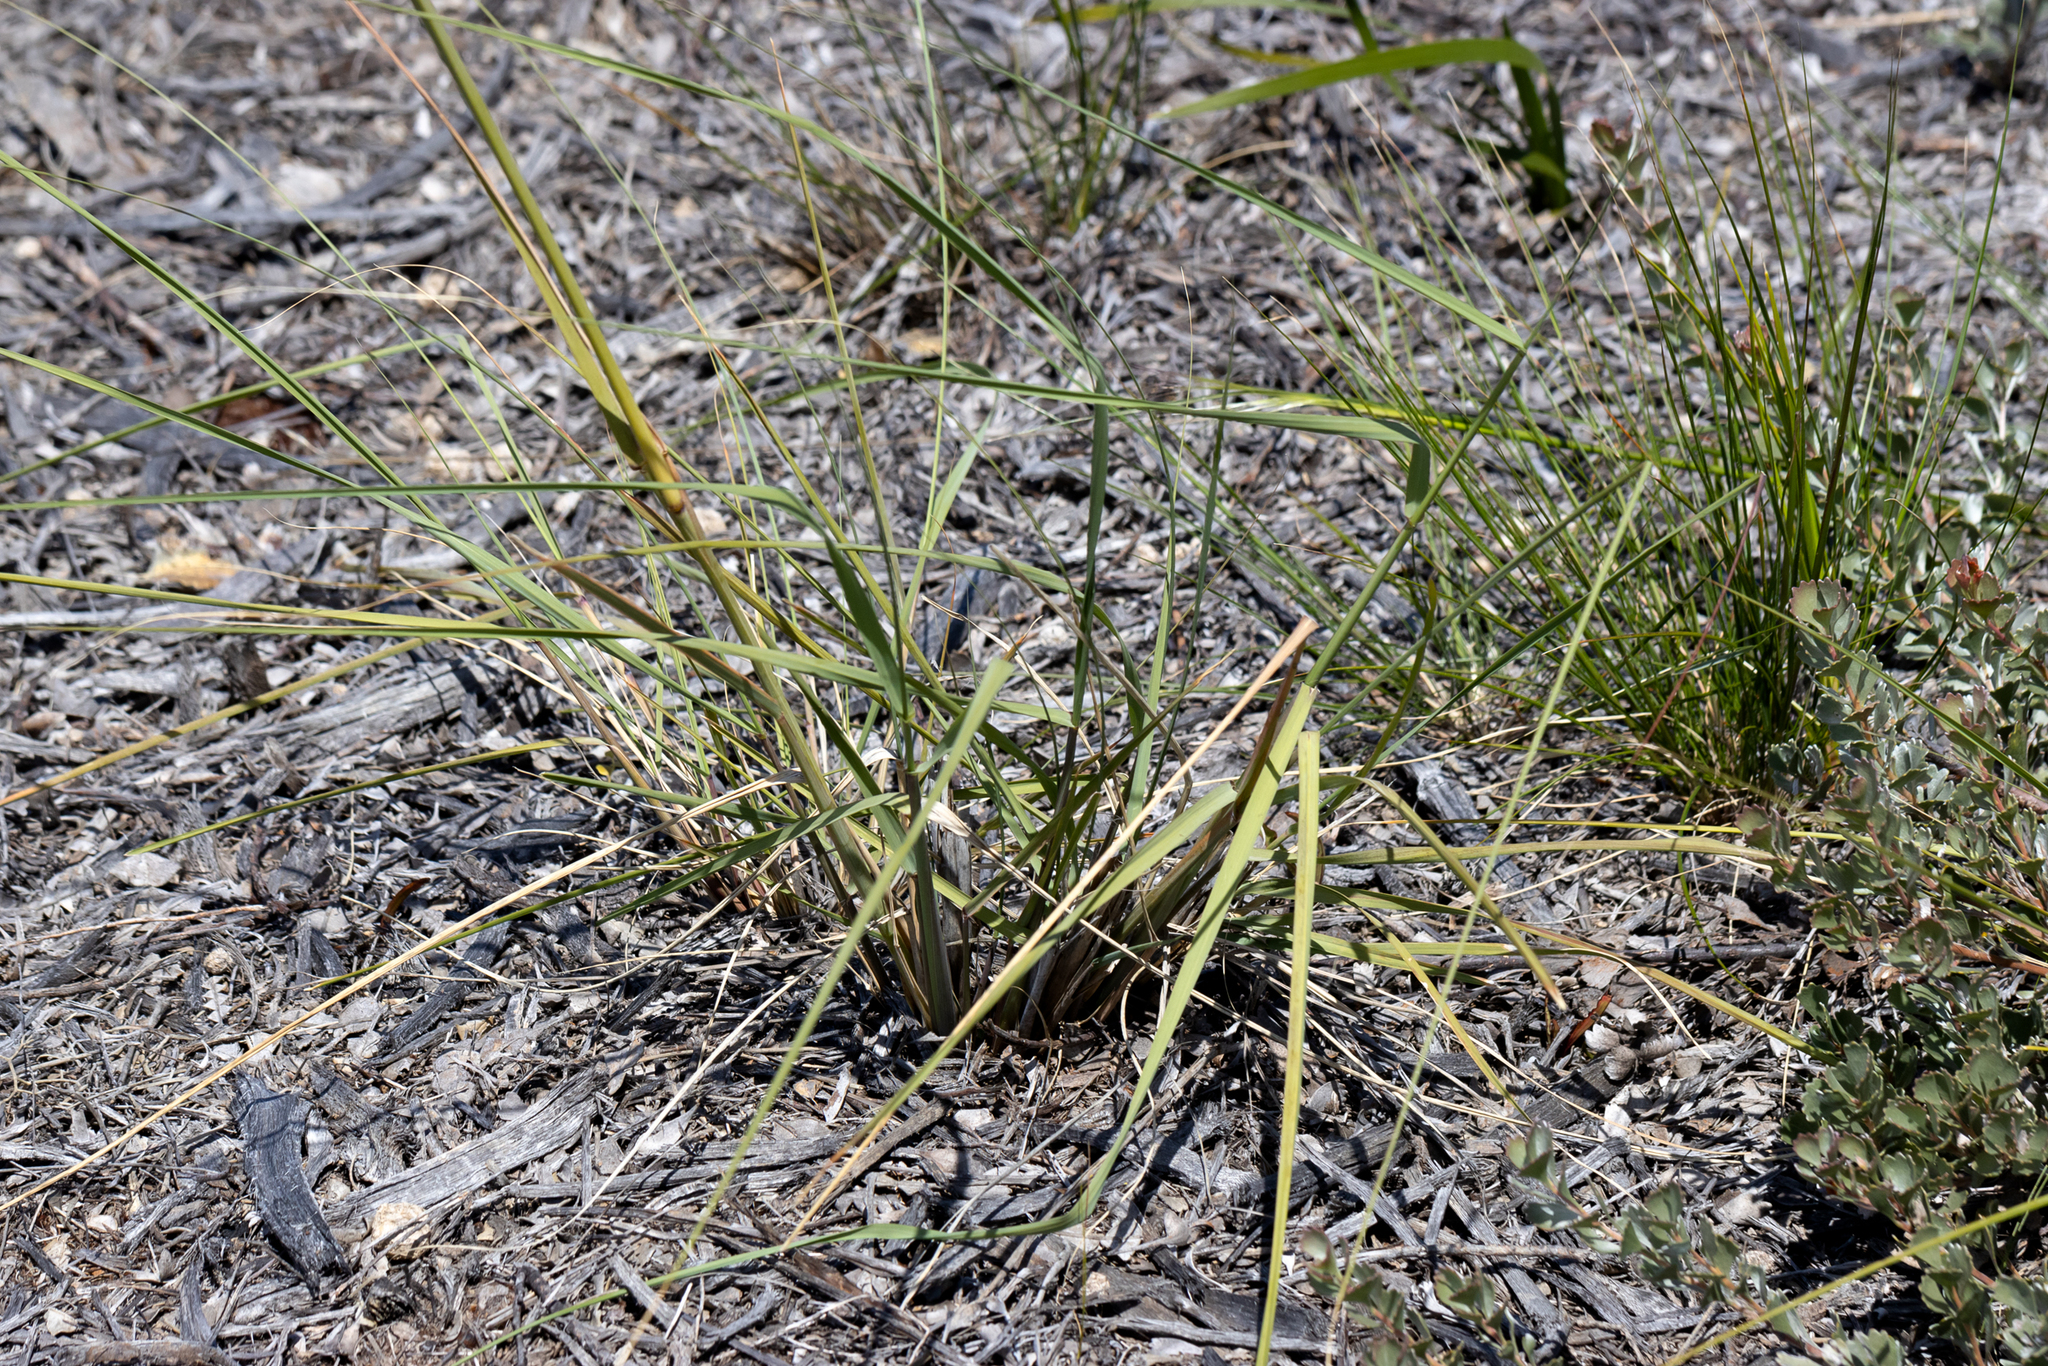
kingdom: Plantae
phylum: Tracheophyta
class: Liliopsida
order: Poales
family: Poaceae
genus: Eragrostis
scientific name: Eragrostis curvula
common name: African love-grass
